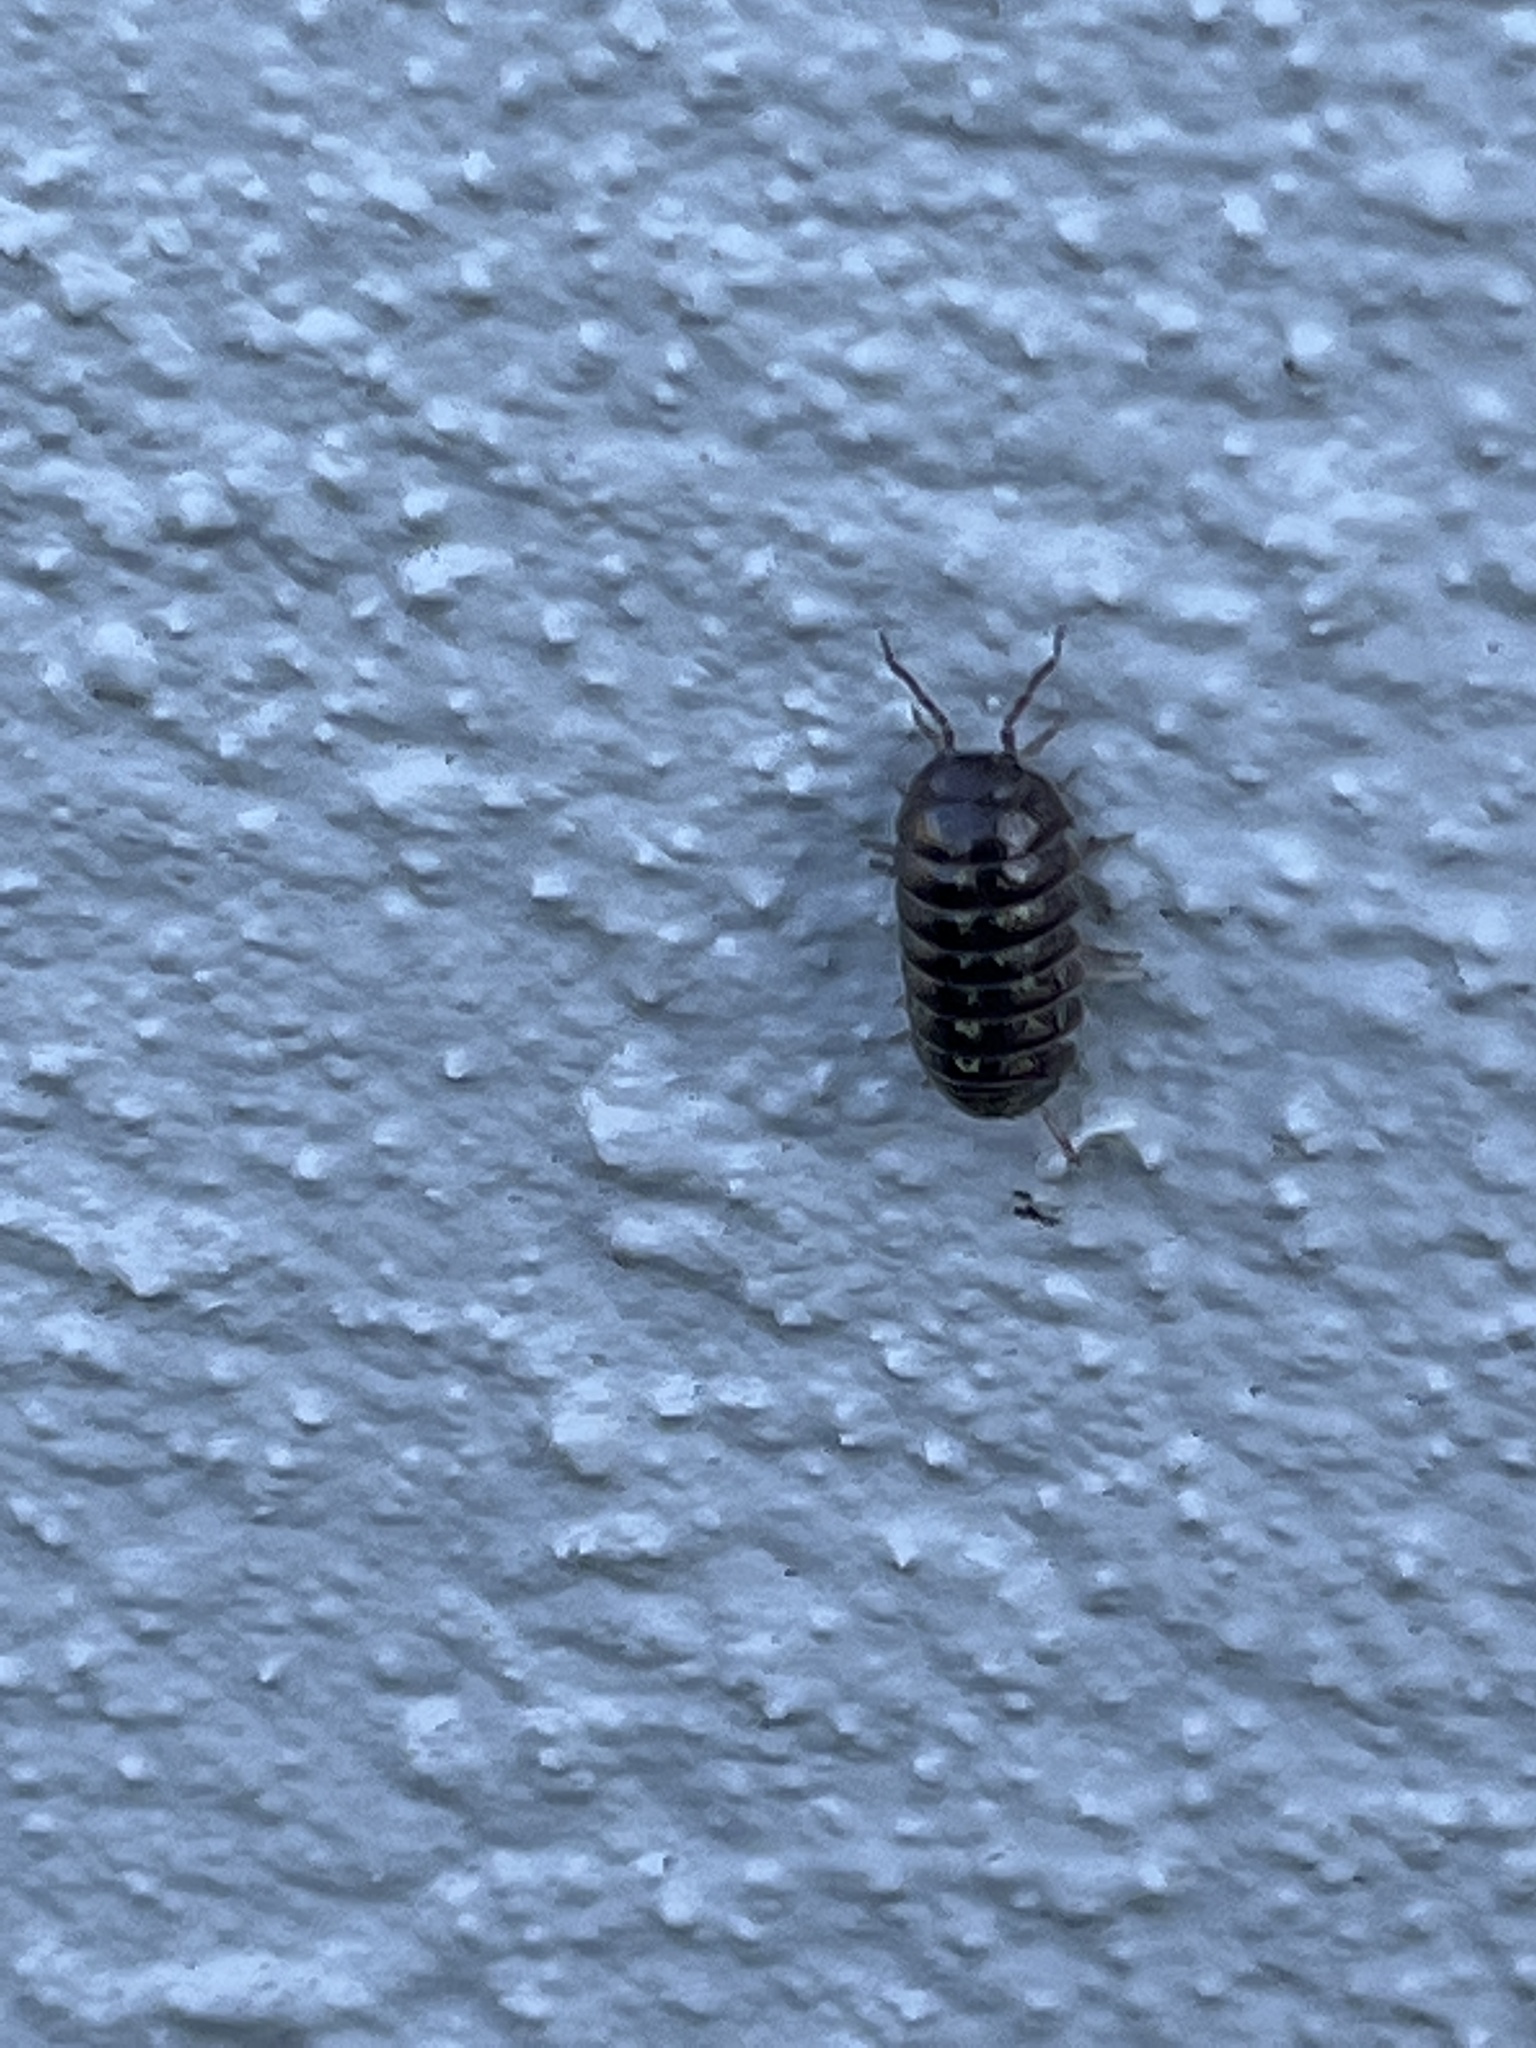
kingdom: Animalia
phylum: Arthropoda
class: Malacostraca
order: Isopoda
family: Armadillidiidae
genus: Armadillidium
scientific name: Armadillidium vulgare
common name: Common pill woodlouse
